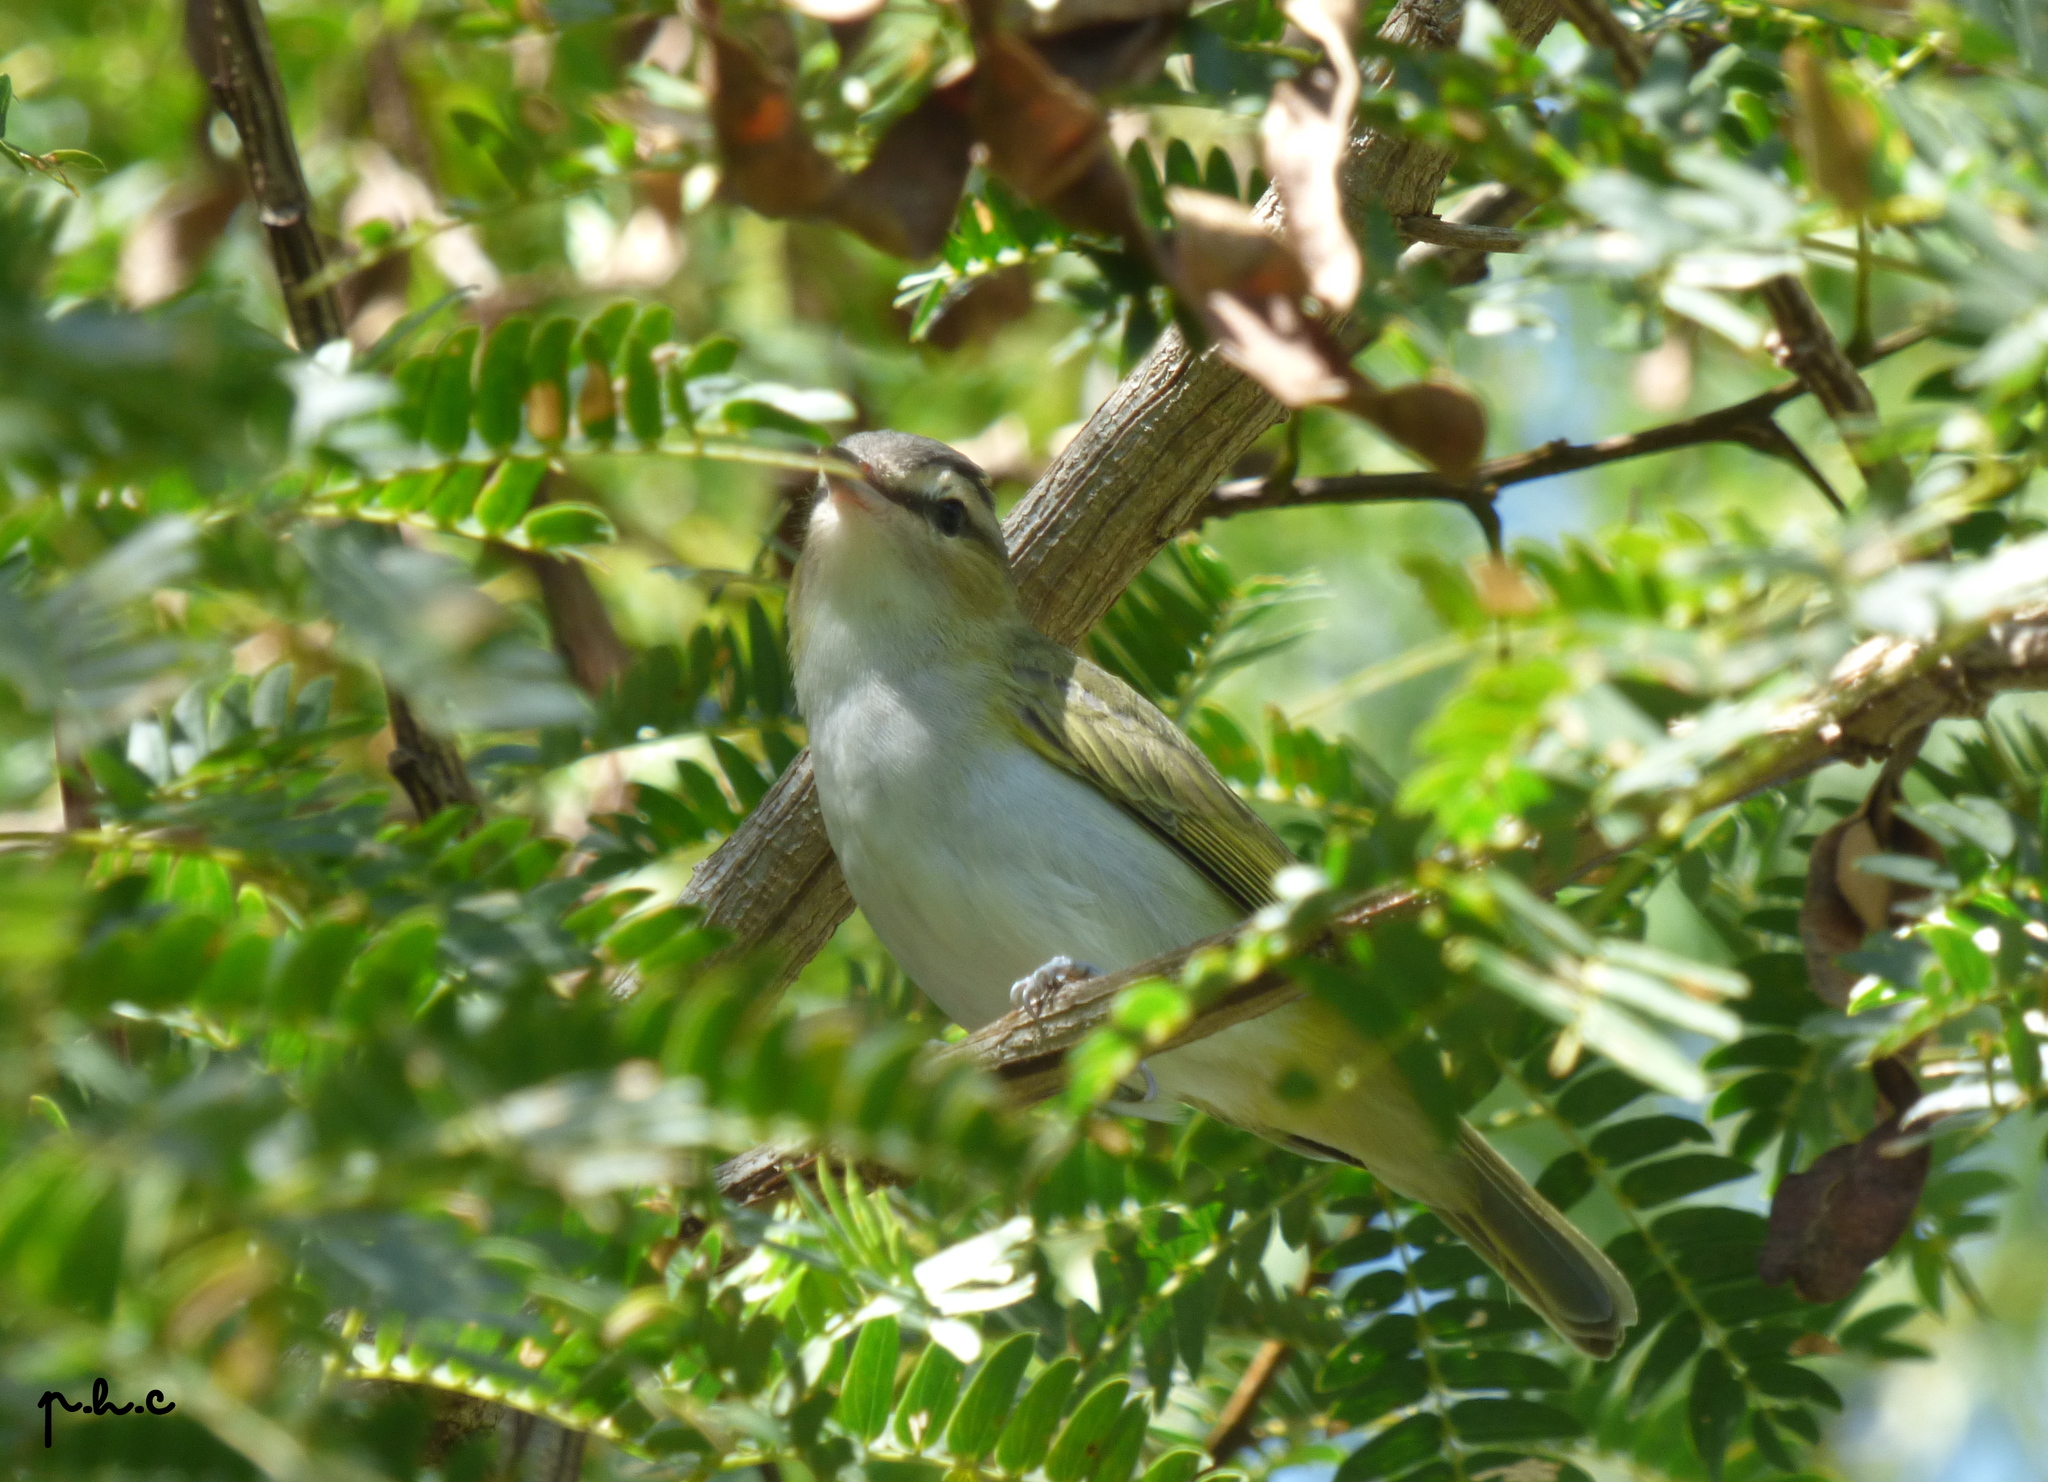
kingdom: Animalia
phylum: Chordata
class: Aves
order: Passeriformes
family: Vireonidae
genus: Vireo
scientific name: Vireo olivaceus
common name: Red-eyed vireo
